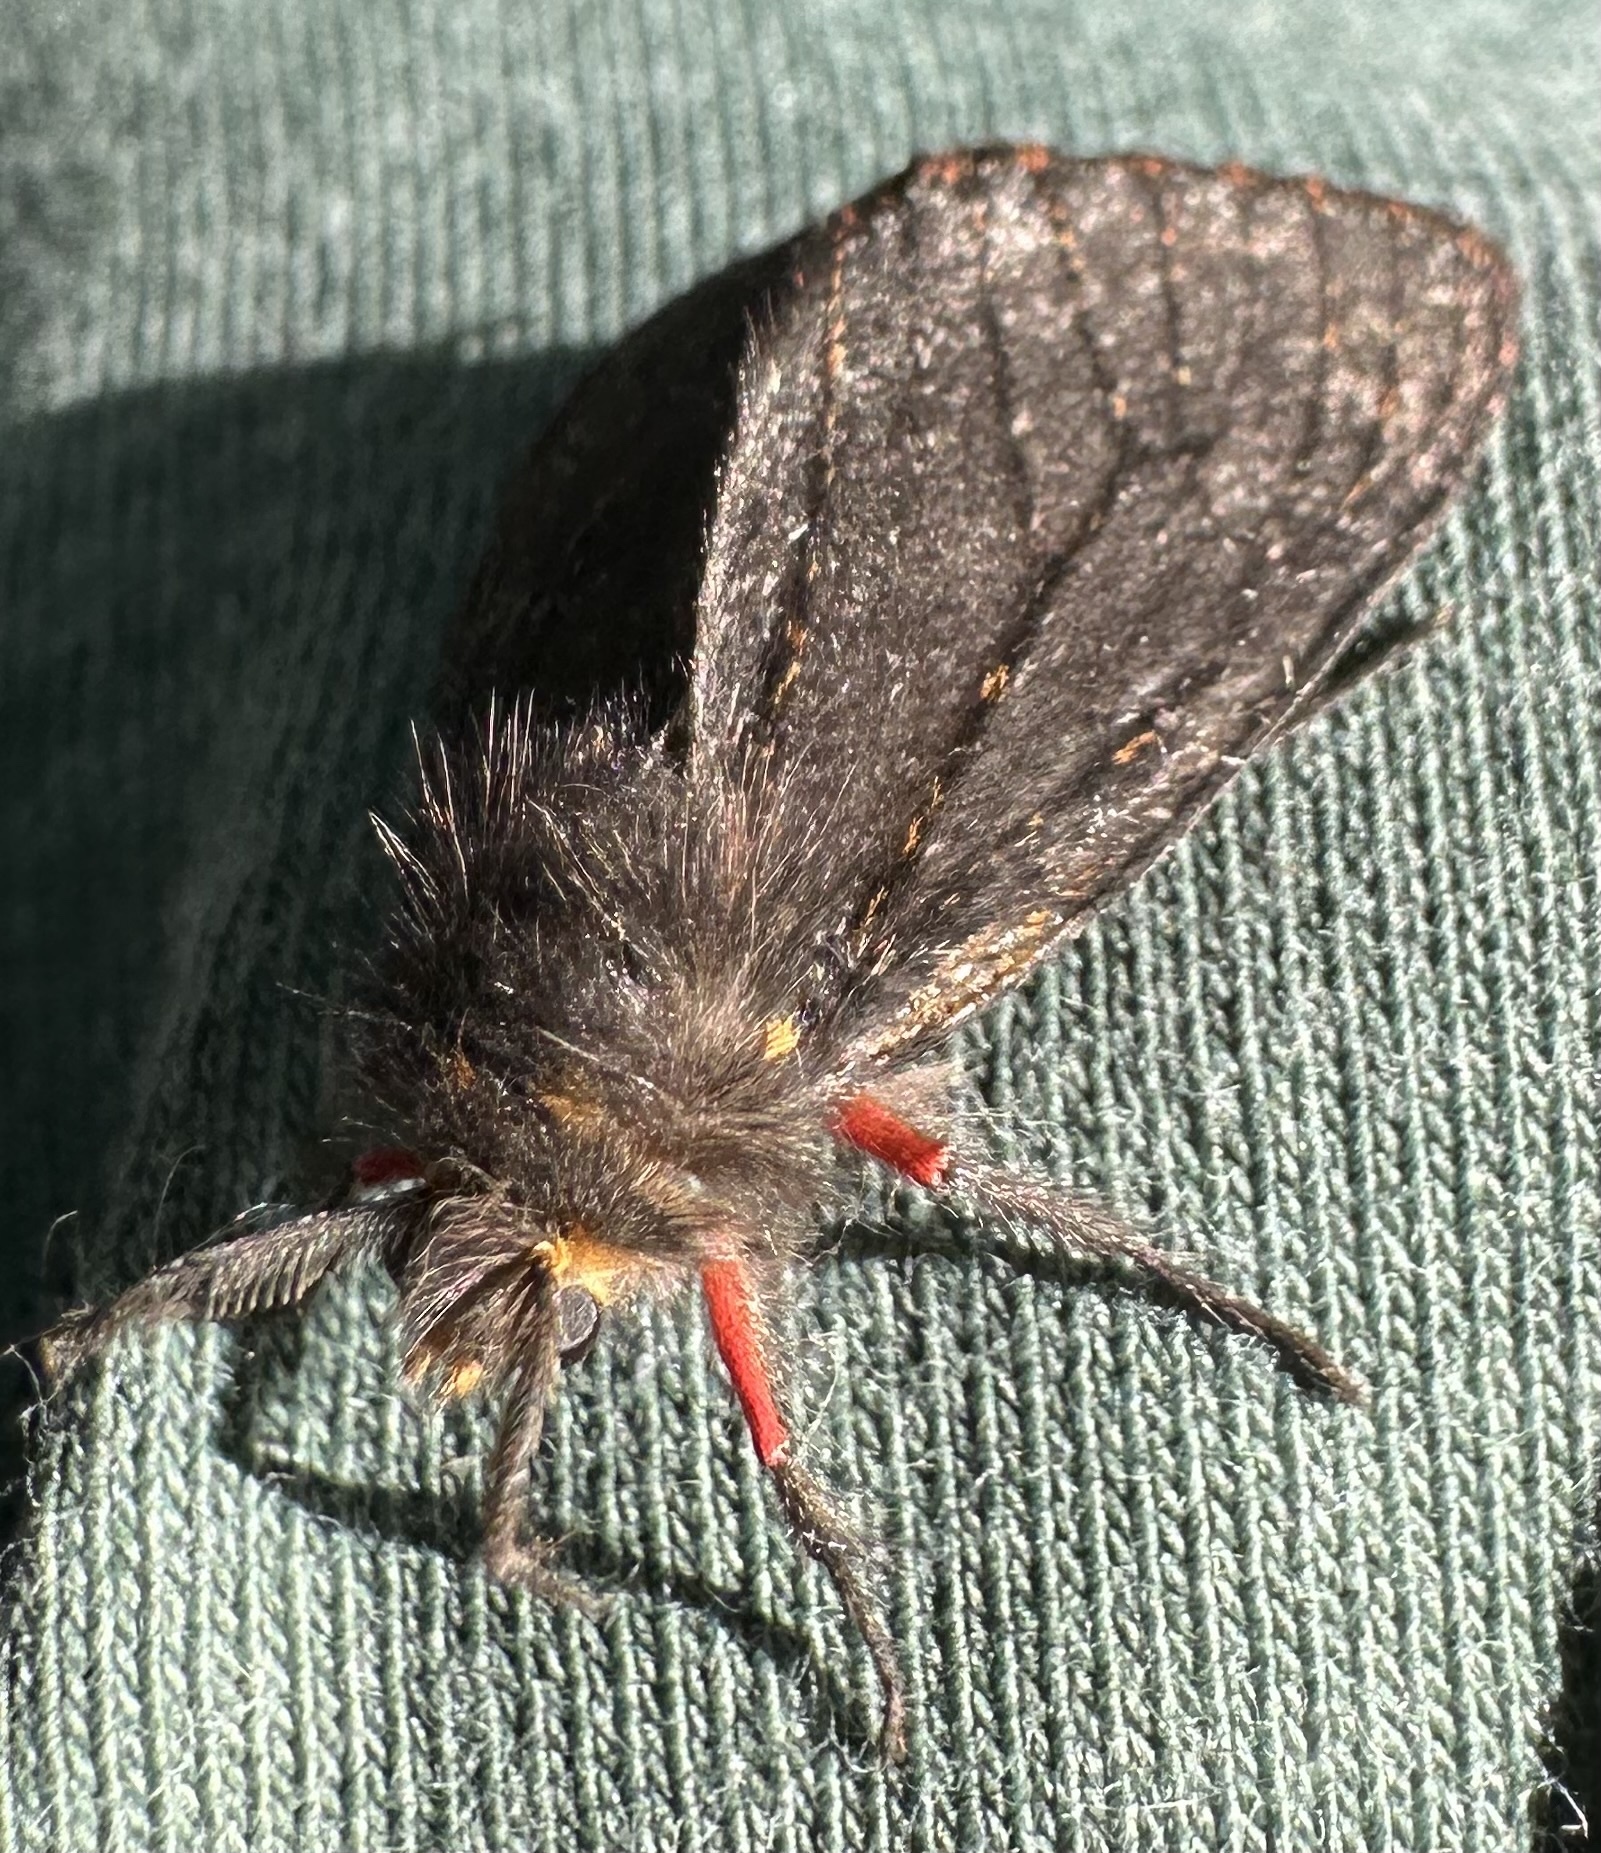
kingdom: Animalia
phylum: Arthropoda
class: Insecta
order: Lepidoptera
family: Erebidae
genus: Polymona
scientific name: Polymona rufifemur
